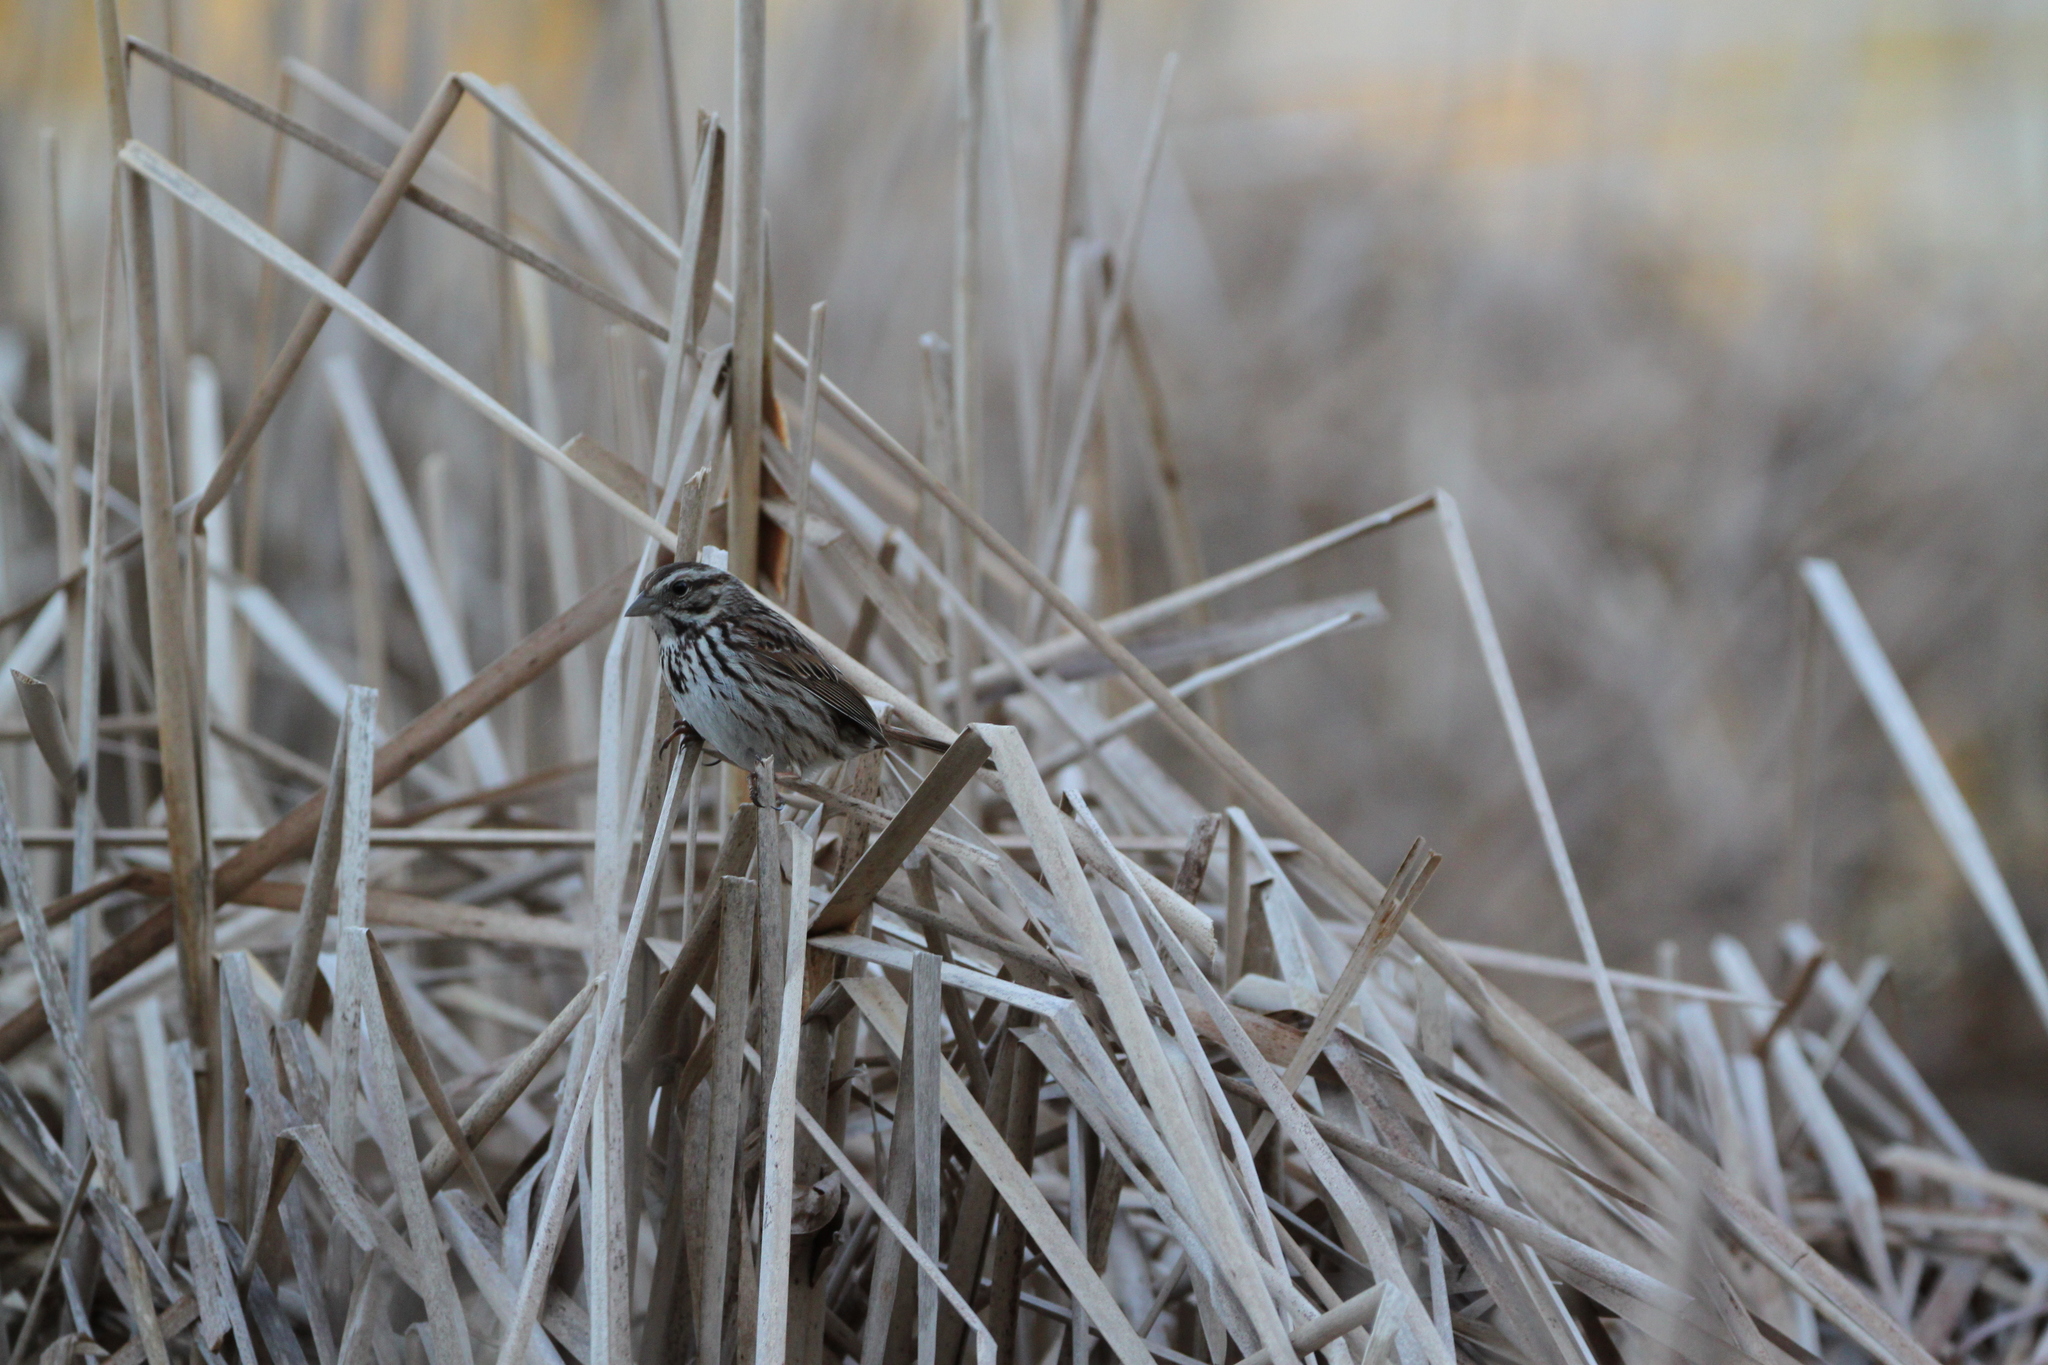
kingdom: Animalia
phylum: Chordata
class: Aves
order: Passeriformes
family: Passerellidae
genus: Melospiza
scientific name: Melospiza melodia
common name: Song sparrow
